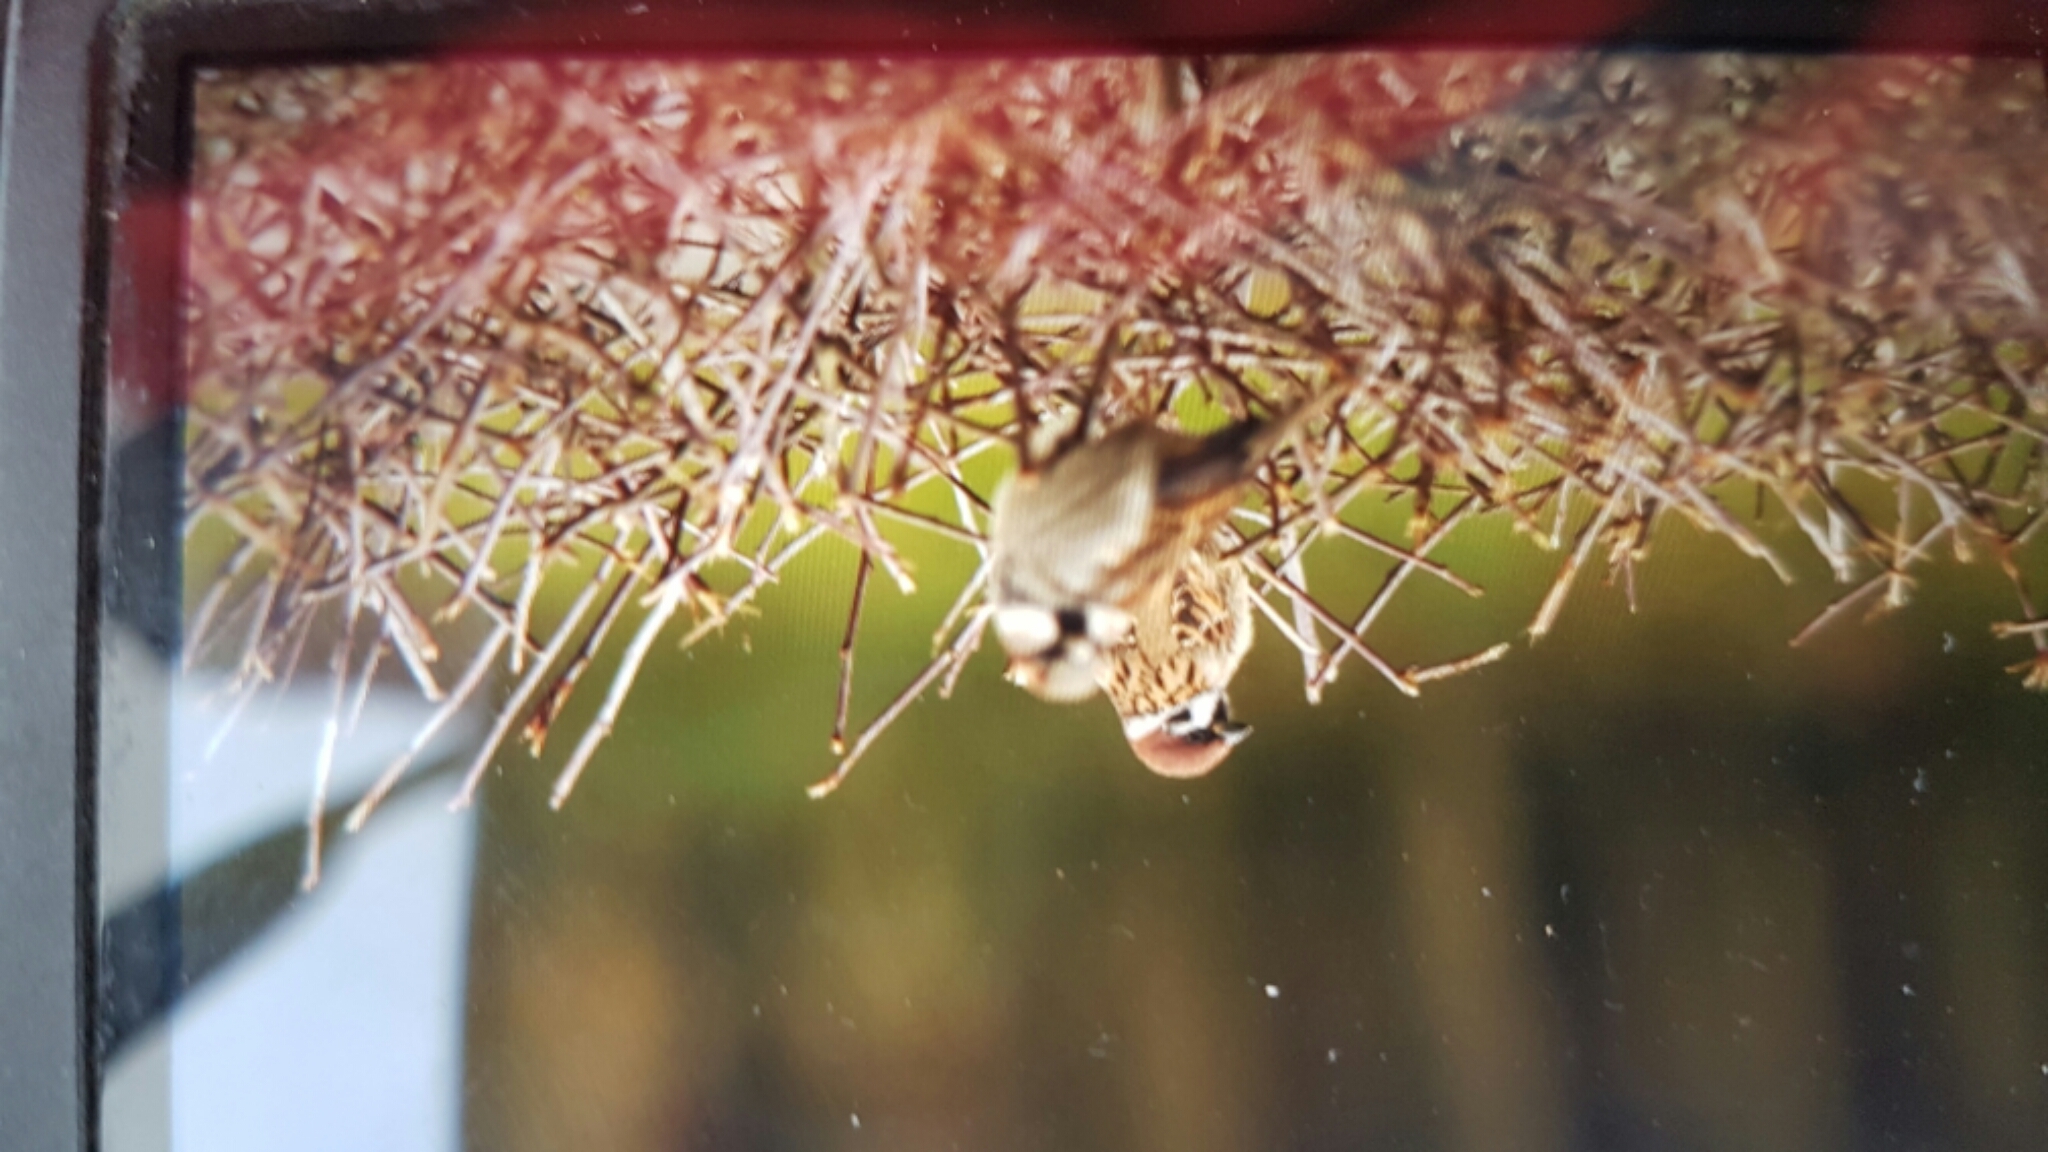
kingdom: Animalia
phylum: Chordata
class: Aves
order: Passeriformes
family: Passeridae
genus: Passer
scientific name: Passer montanus
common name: Eurasian tree sparrow
